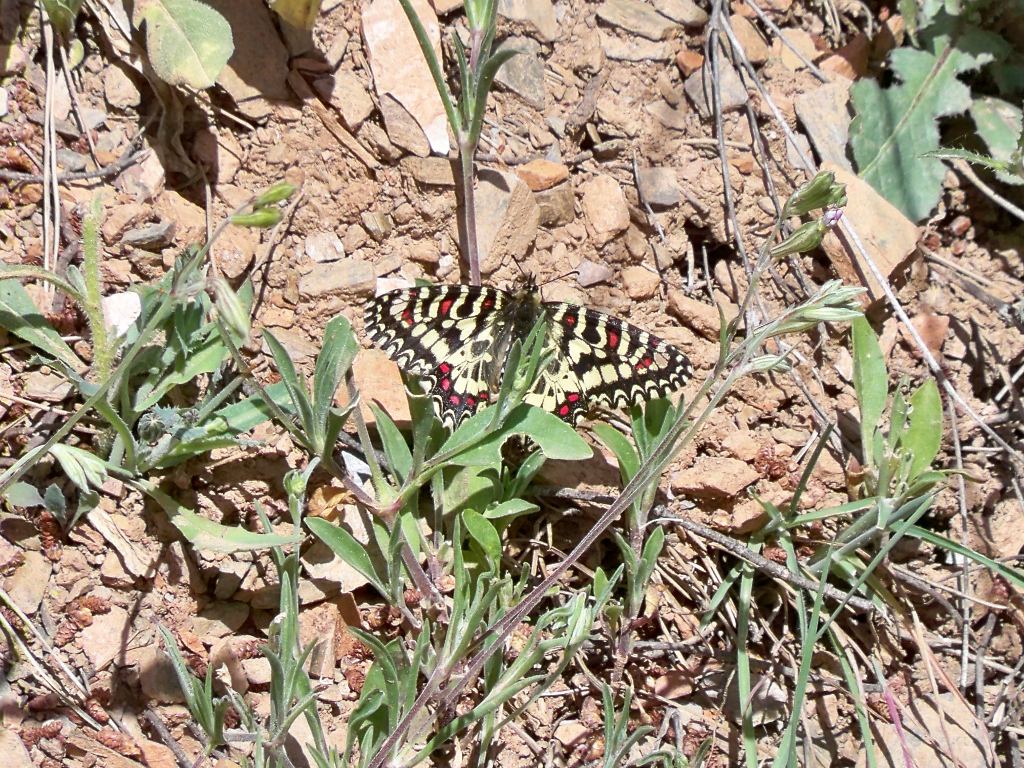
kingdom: Animalia
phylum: Arthropoda
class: Insecta
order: Lepidoptera
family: Papilionidae
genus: Zerynthia
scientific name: Zerynthia rumina
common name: Spanish festoon
